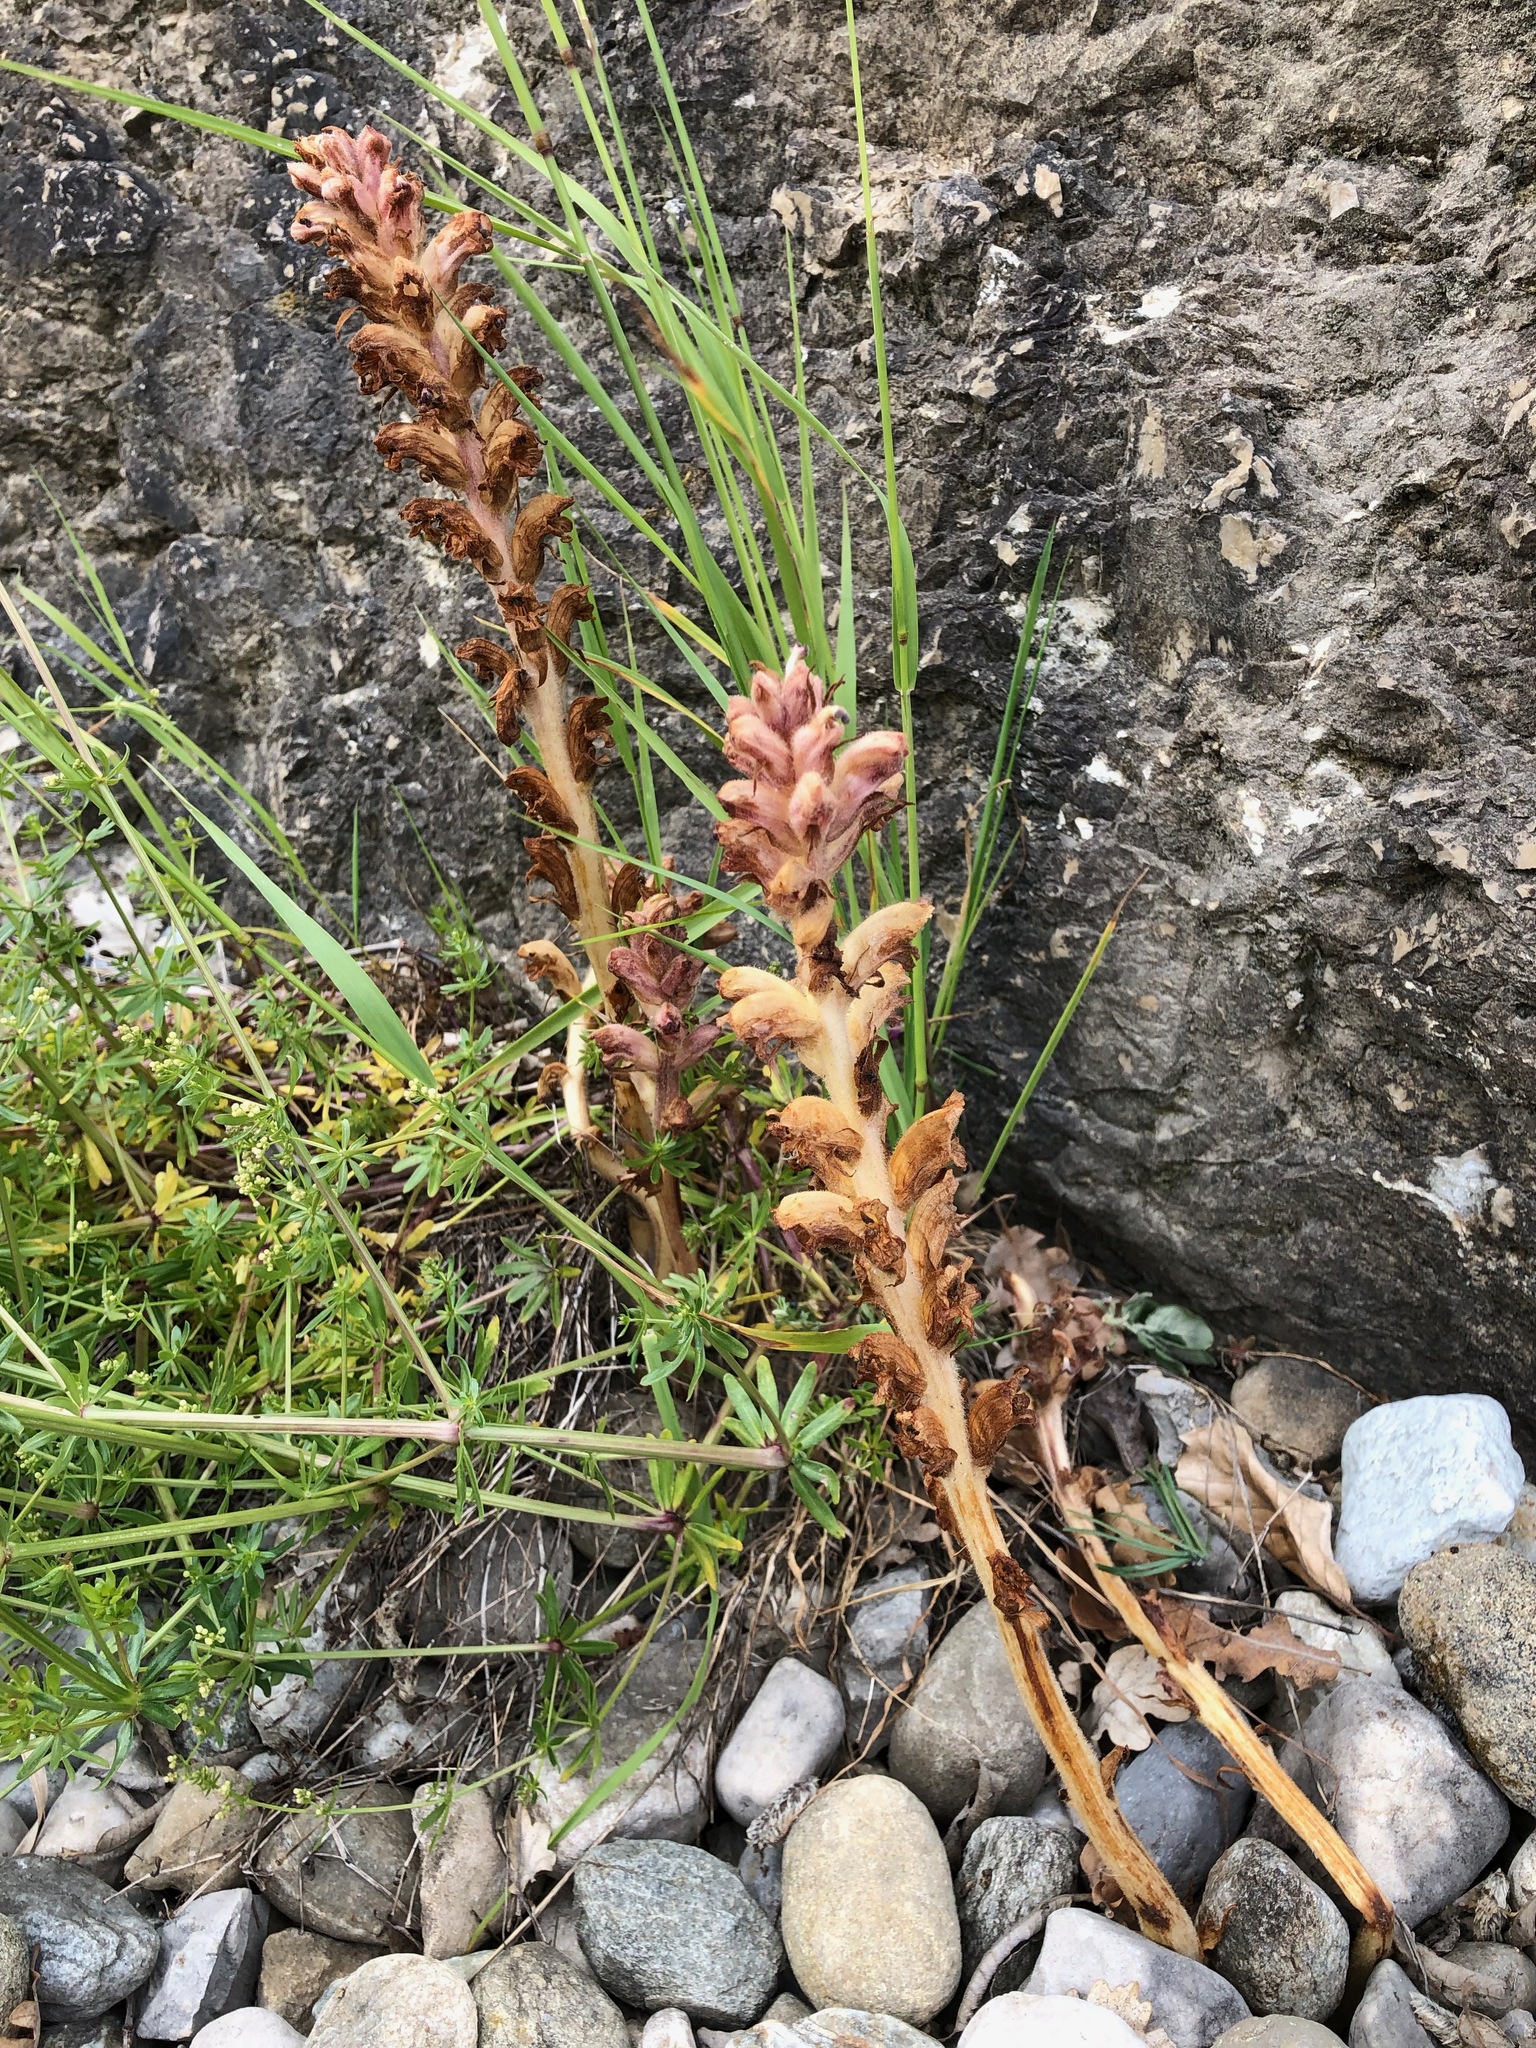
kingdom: Plantae
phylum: Tracheophyta
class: Magnoliopsida
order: Lamiales
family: Orobanchaceae
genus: Orobanche
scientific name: Orobanche caryophyllacea
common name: Bedstraw broomrape
